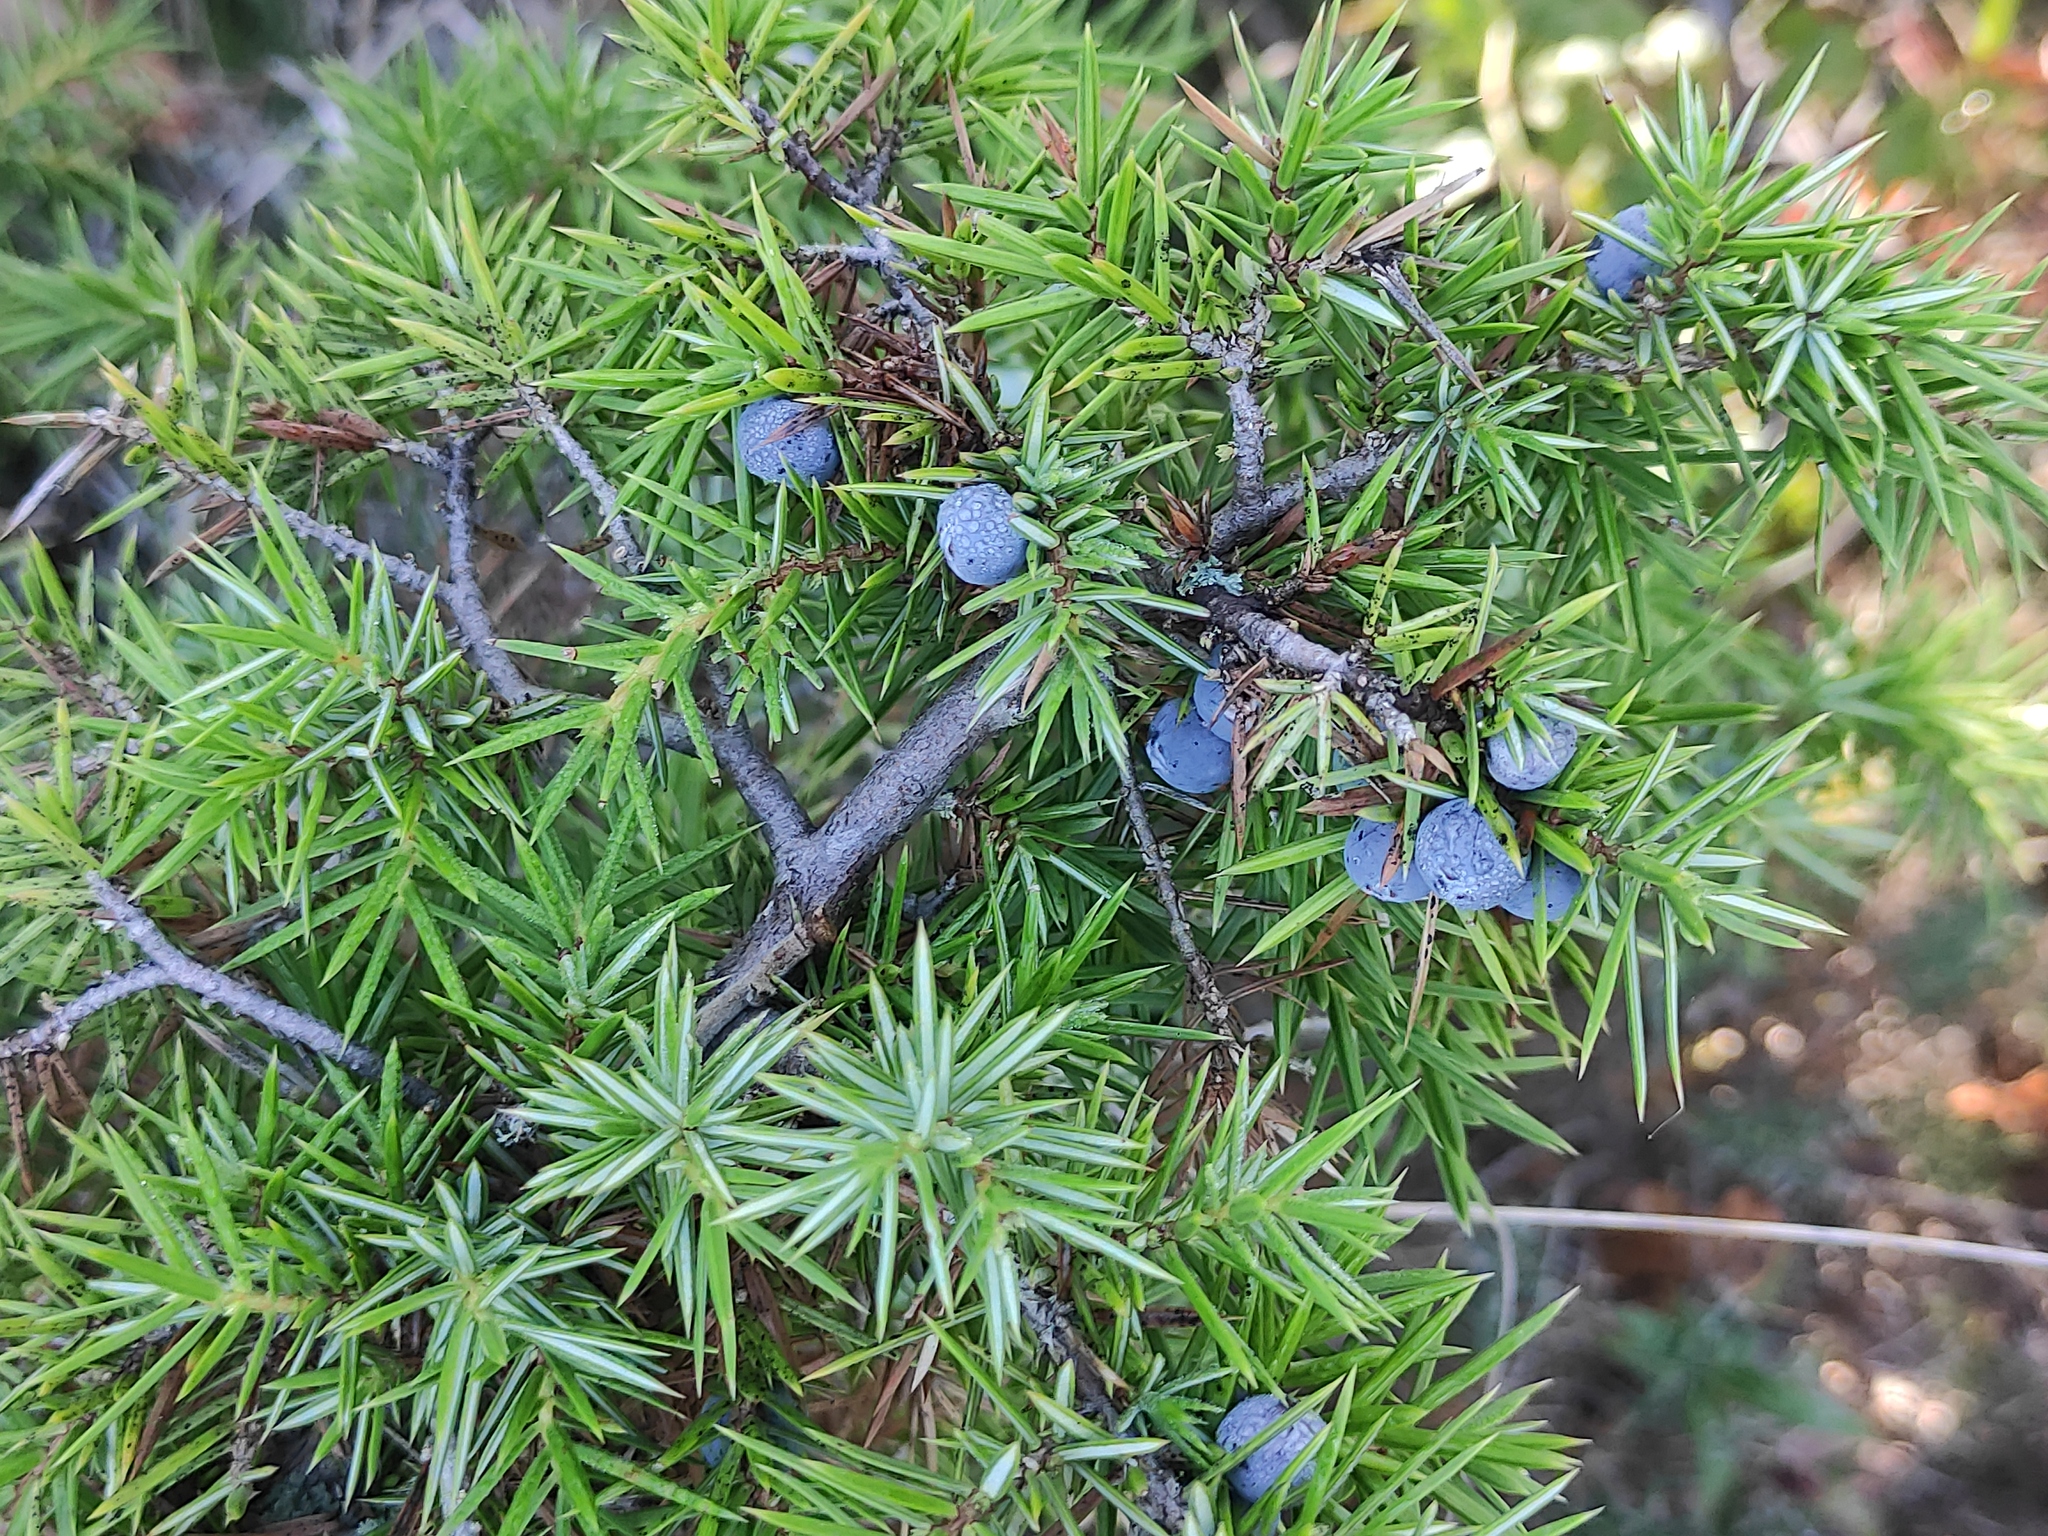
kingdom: Plantae
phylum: Tracheophyta
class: Pinopsida
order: Pinales
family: Cupressaceae
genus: Juniperus
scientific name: Juniperus communis
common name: Common juniper
